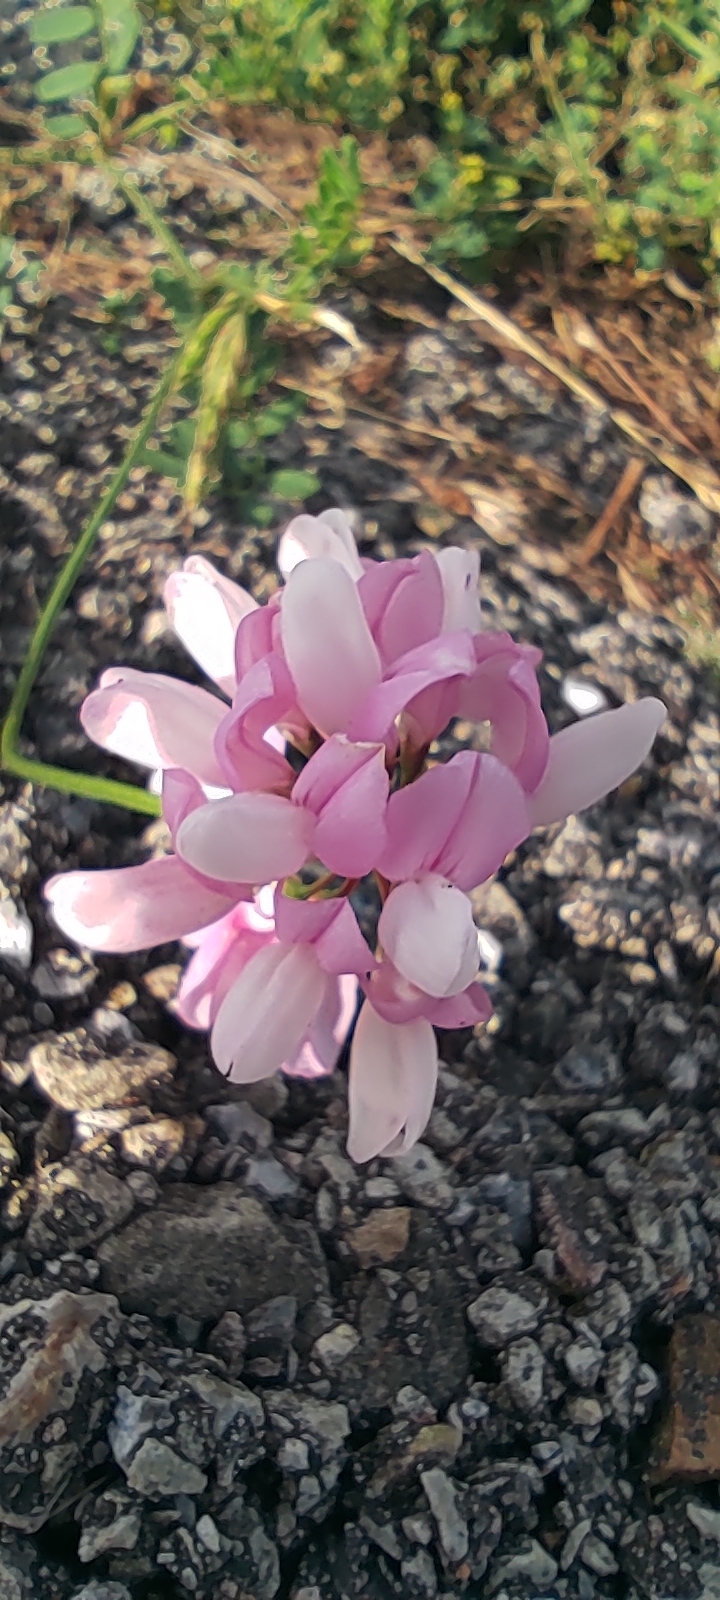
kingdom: Plantae
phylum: Tracheophyta
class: Magnoliopsida
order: Fabales
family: Fabaceae
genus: Coronilla
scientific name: Coronilla varia
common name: Crownvetch
